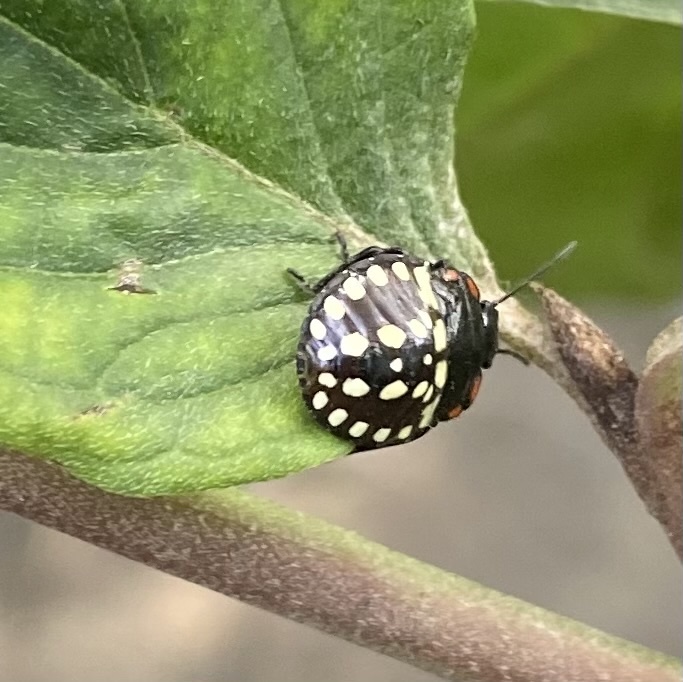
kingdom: Animalia
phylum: Arthropoda
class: Insecta
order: Hemiptera
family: Pentatomidae
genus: Nezara
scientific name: Nezara viridula
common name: Southern green stink bug
